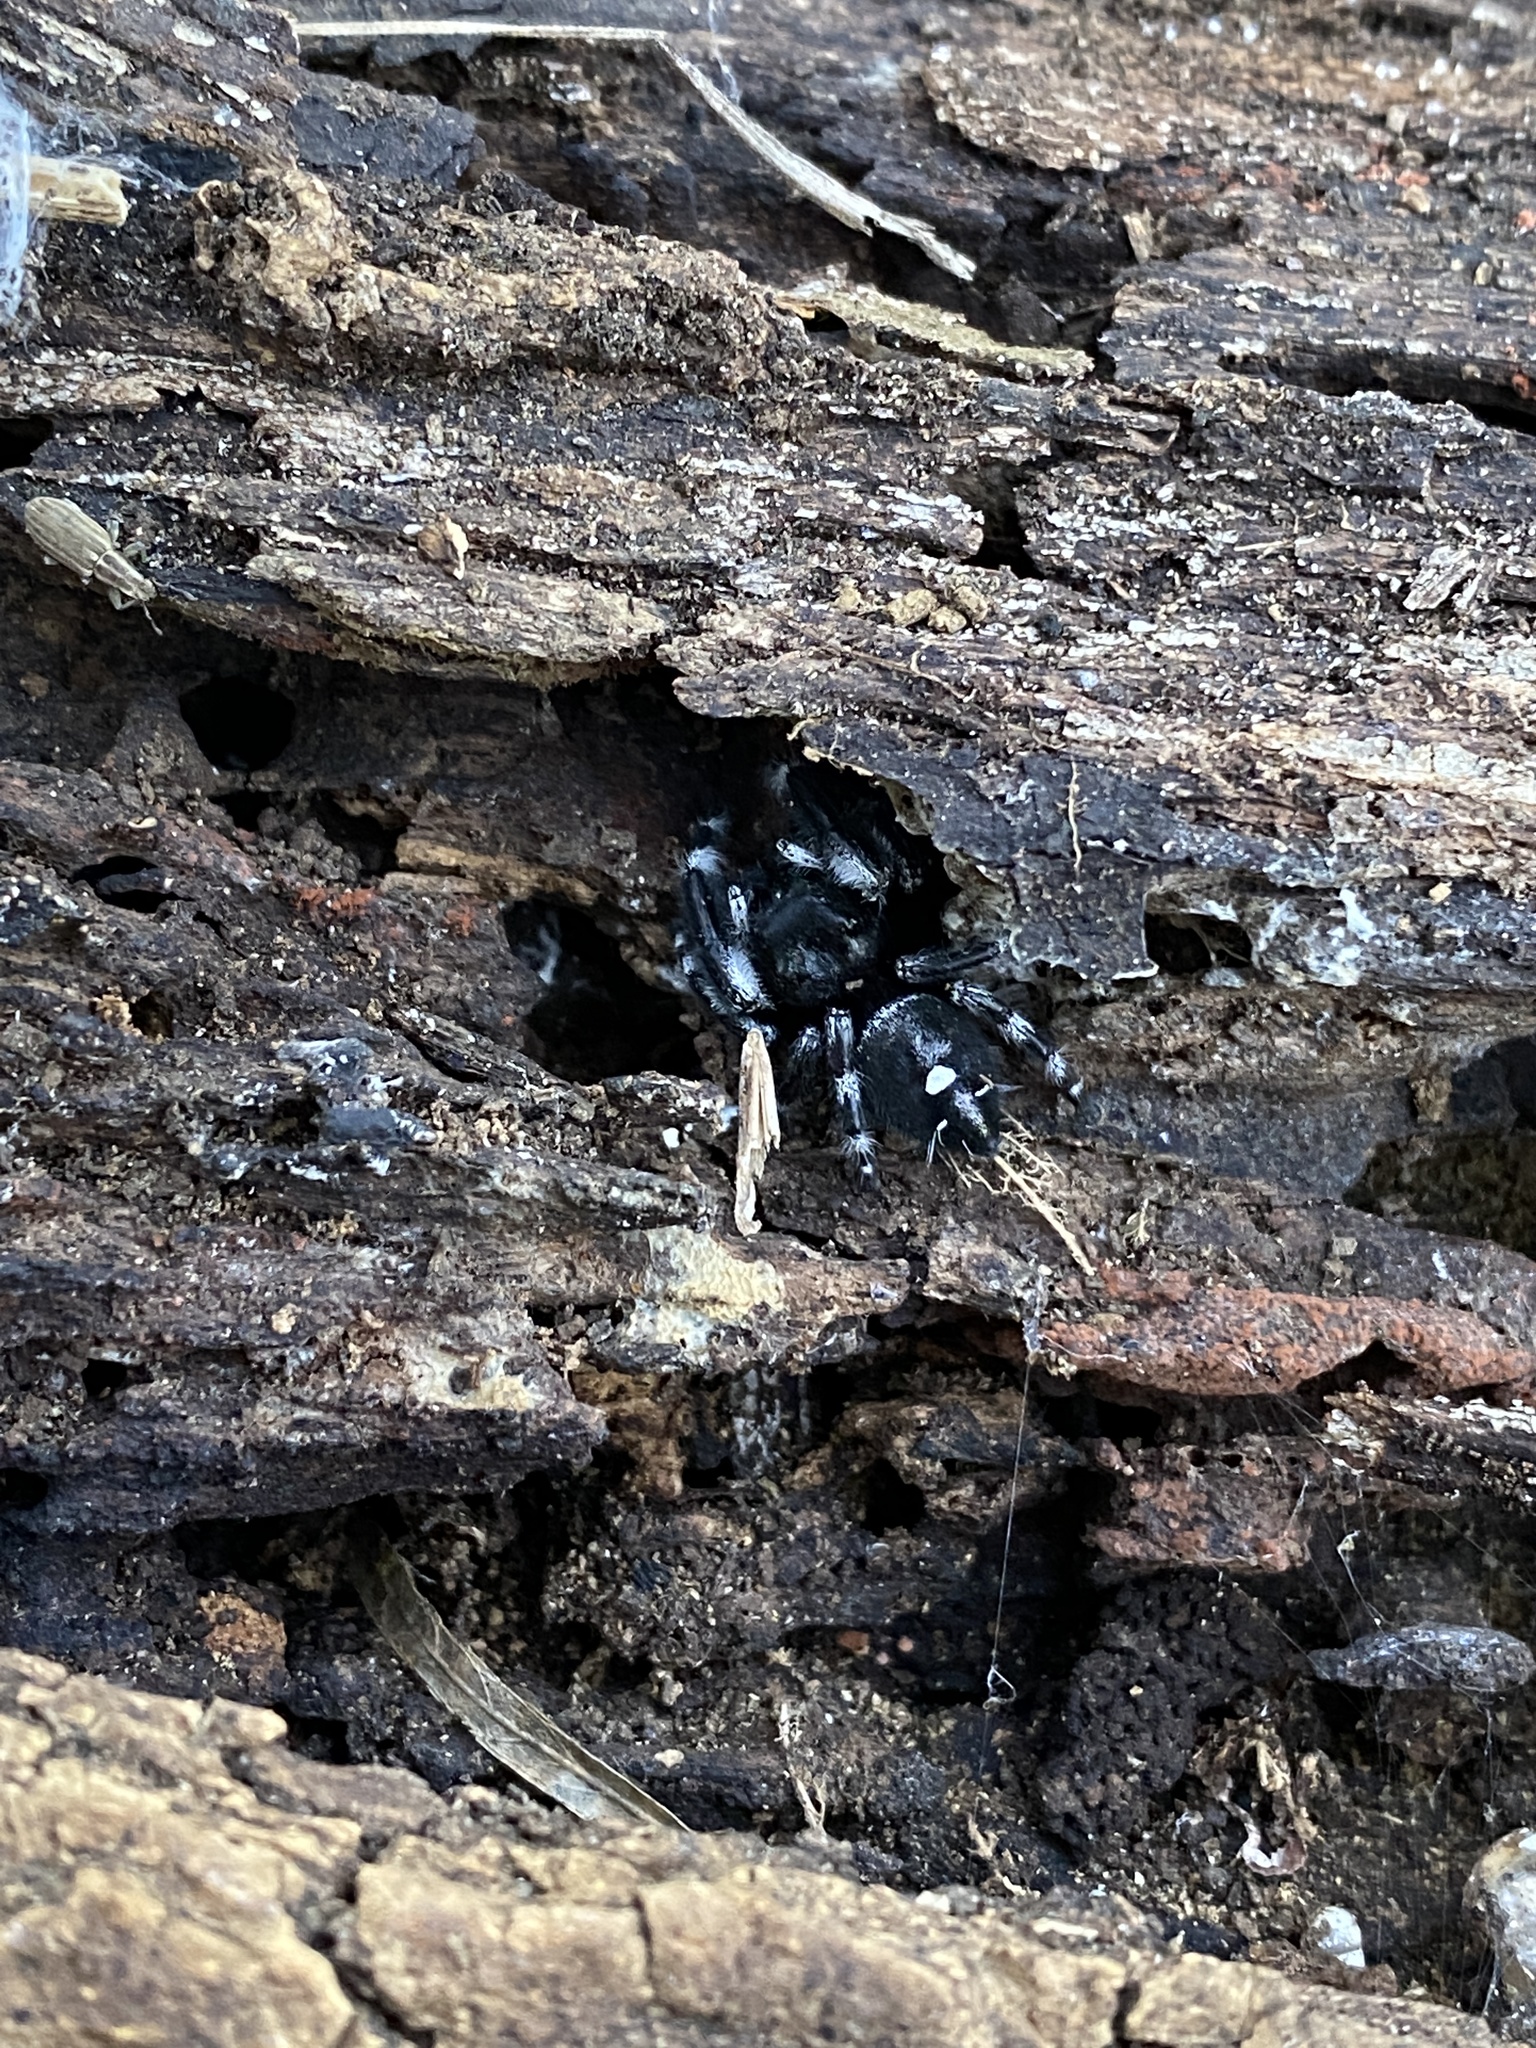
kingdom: Animalia
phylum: Arthropoda
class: Arachnida
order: Araneae
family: Salticidae
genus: Phidippus
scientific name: Phidippus audax
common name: Bold jumper
